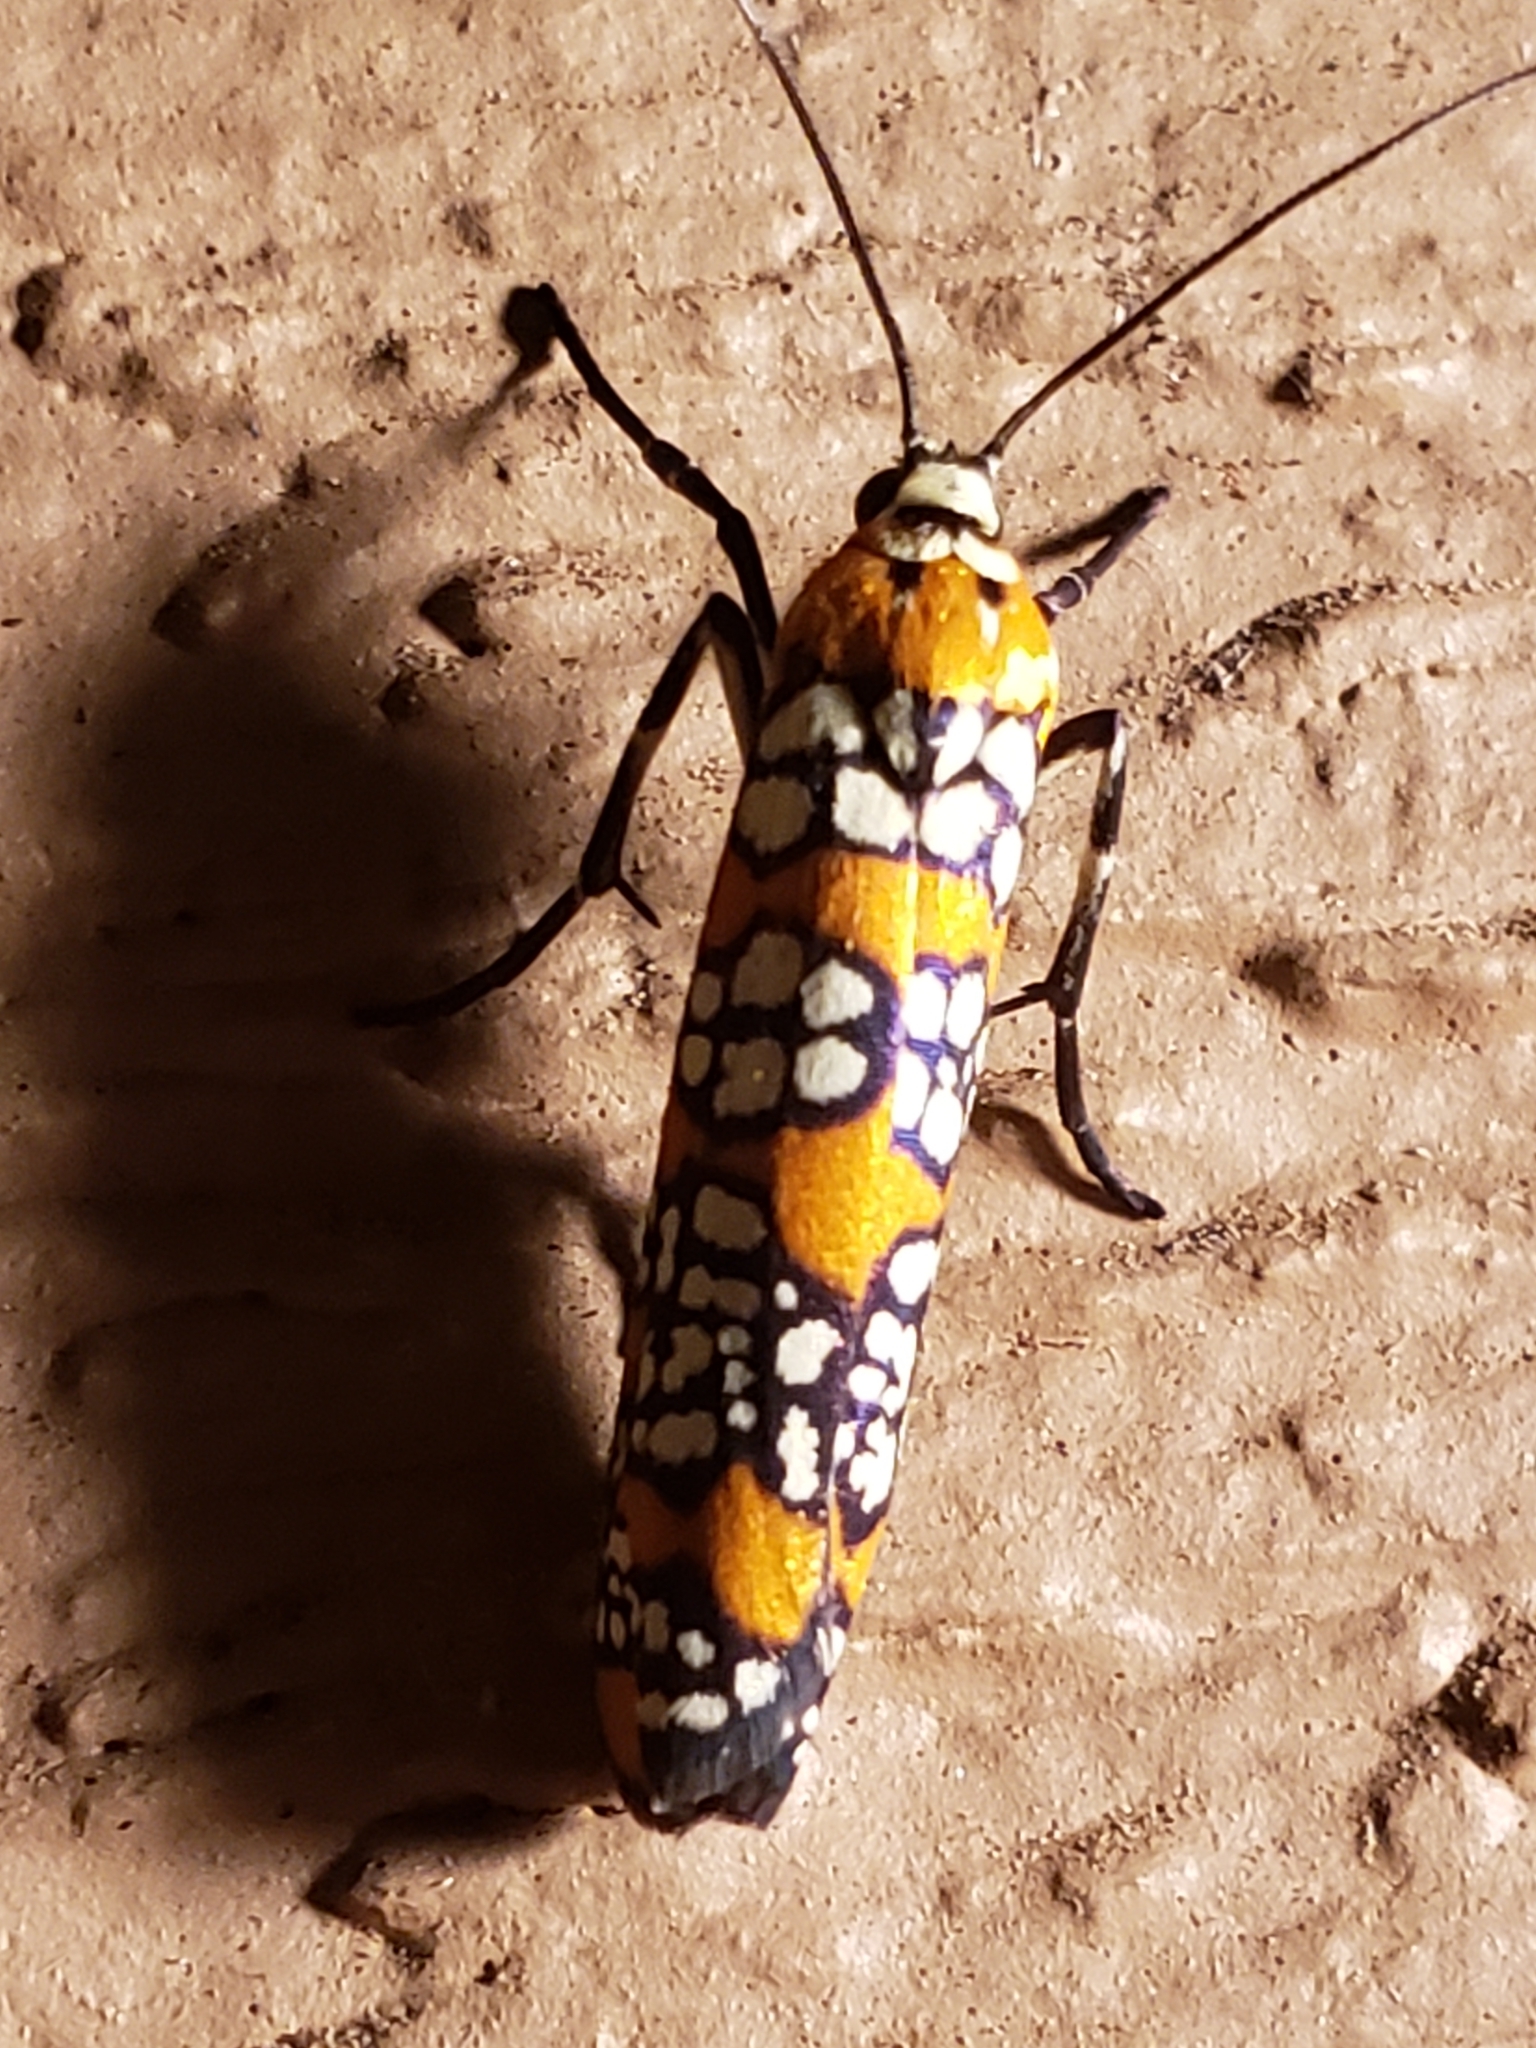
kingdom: Animalia
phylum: Arthropoda
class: Insecta
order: Lepidoptera
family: Attevidae
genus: Atteva
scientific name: Atteva punctella
